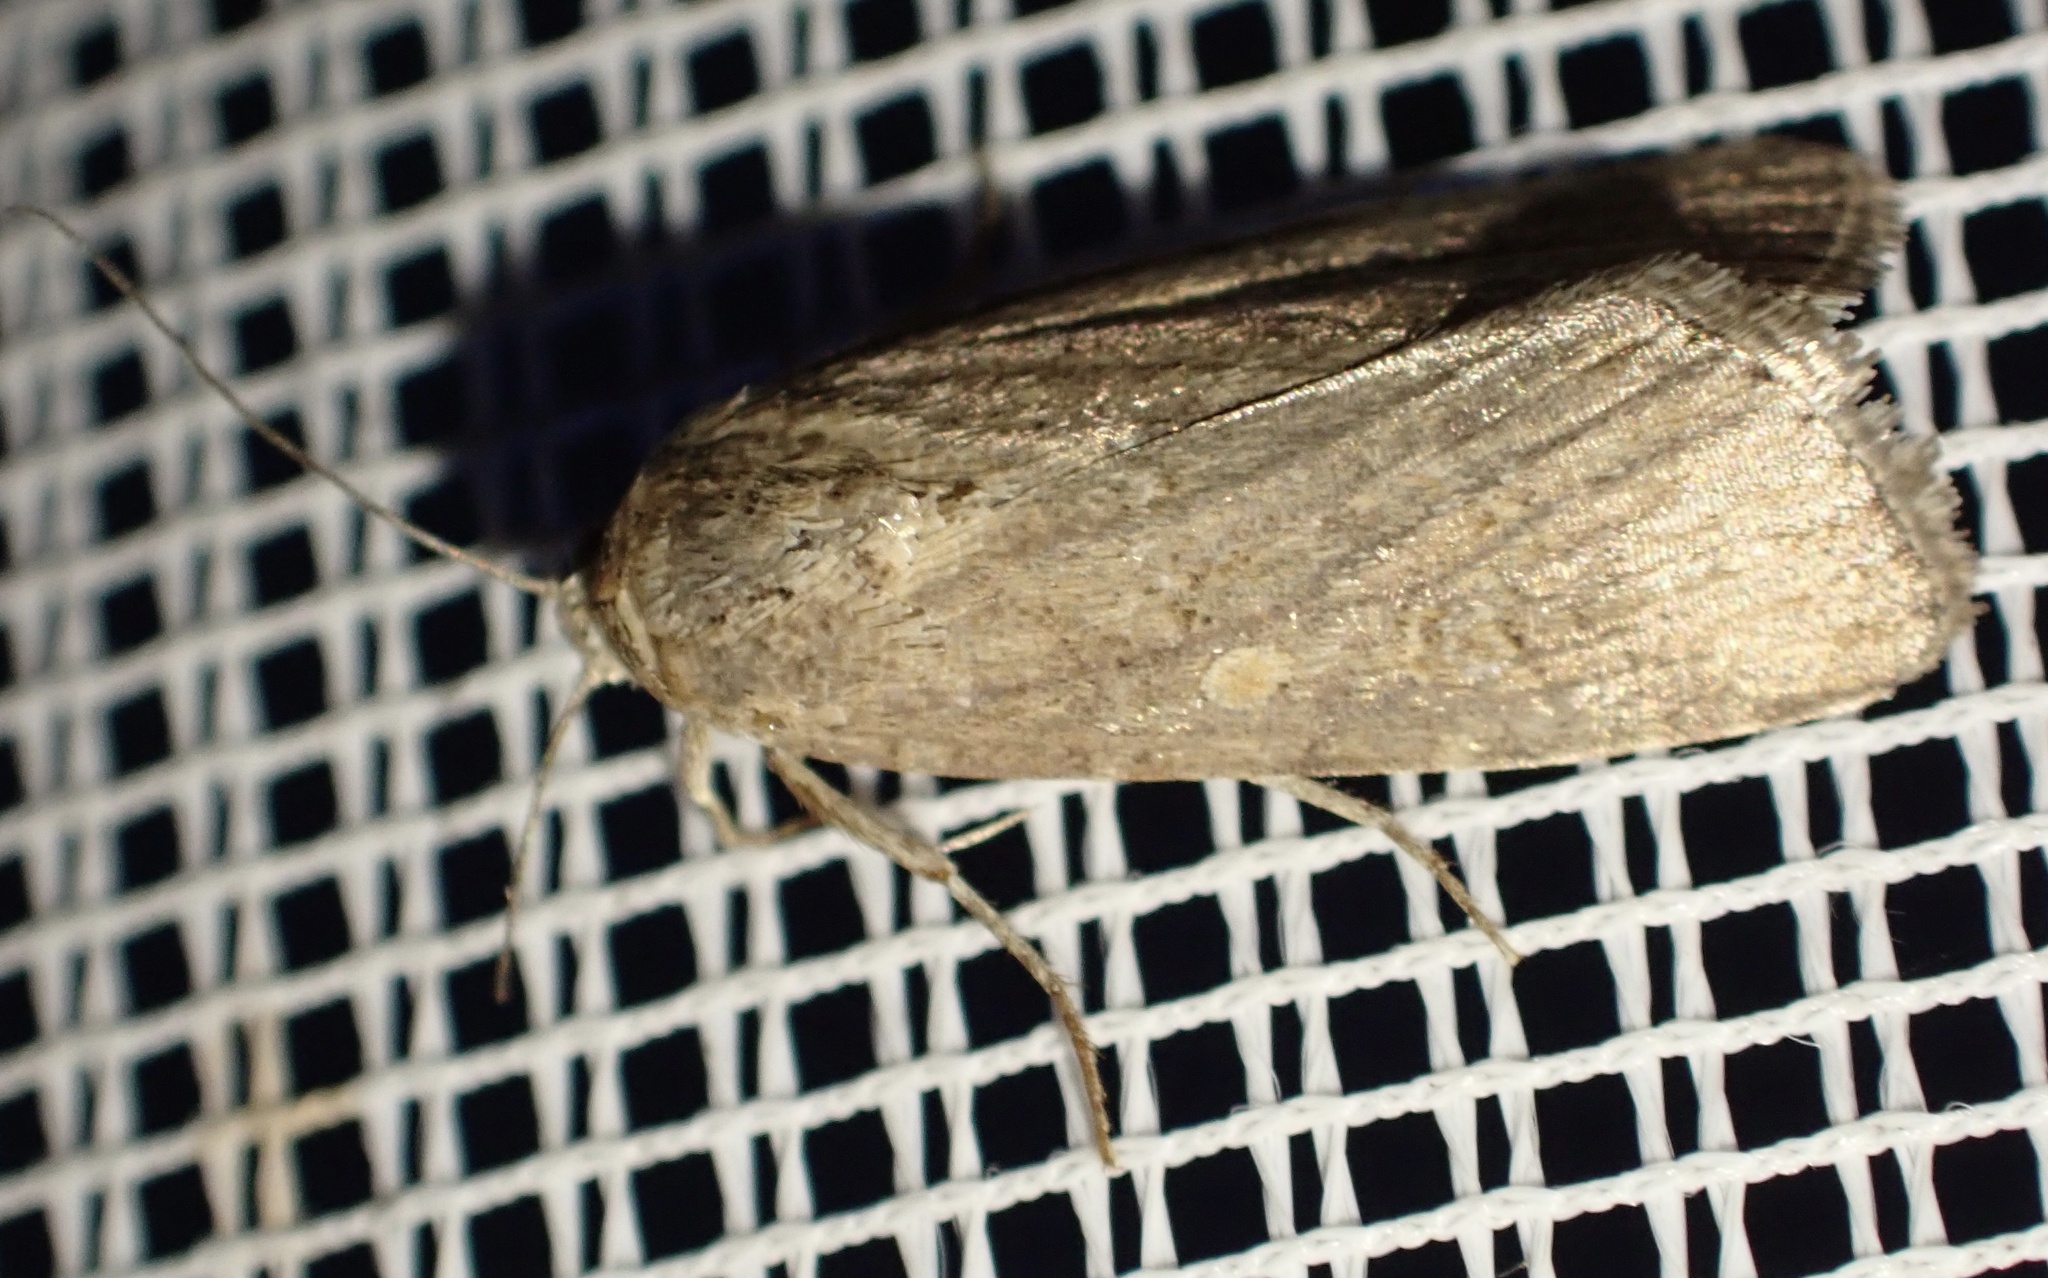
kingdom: Animalia
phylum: Arthropoda
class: Insecta
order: Lepidoptera
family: Noctuidae
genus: Spodoptera
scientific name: Spodoptera exigua
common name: Beet armyworm
